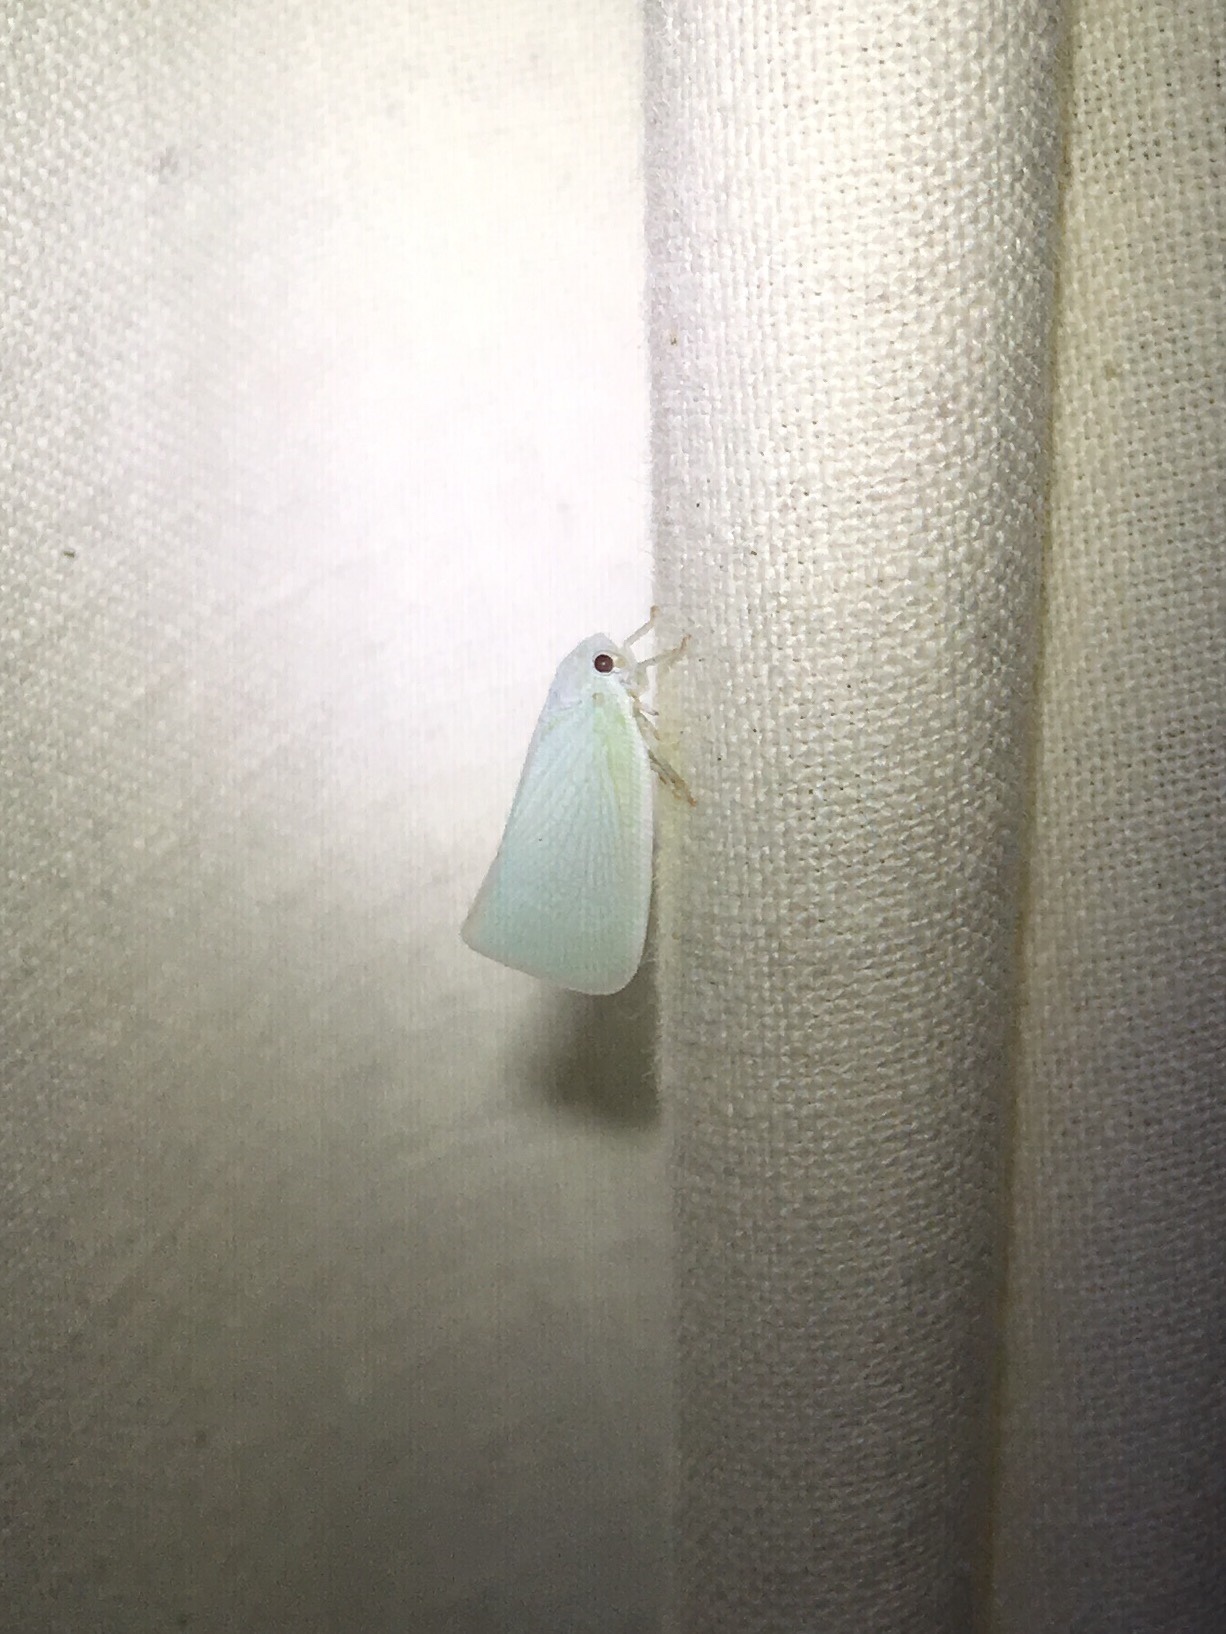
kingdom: Animalia
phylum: Arthropoda
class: Insecta
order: Hemiptera
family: Flatidae
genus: Flatormenis
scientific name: Flatormenis proxima
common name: Northern flatid planthopper
